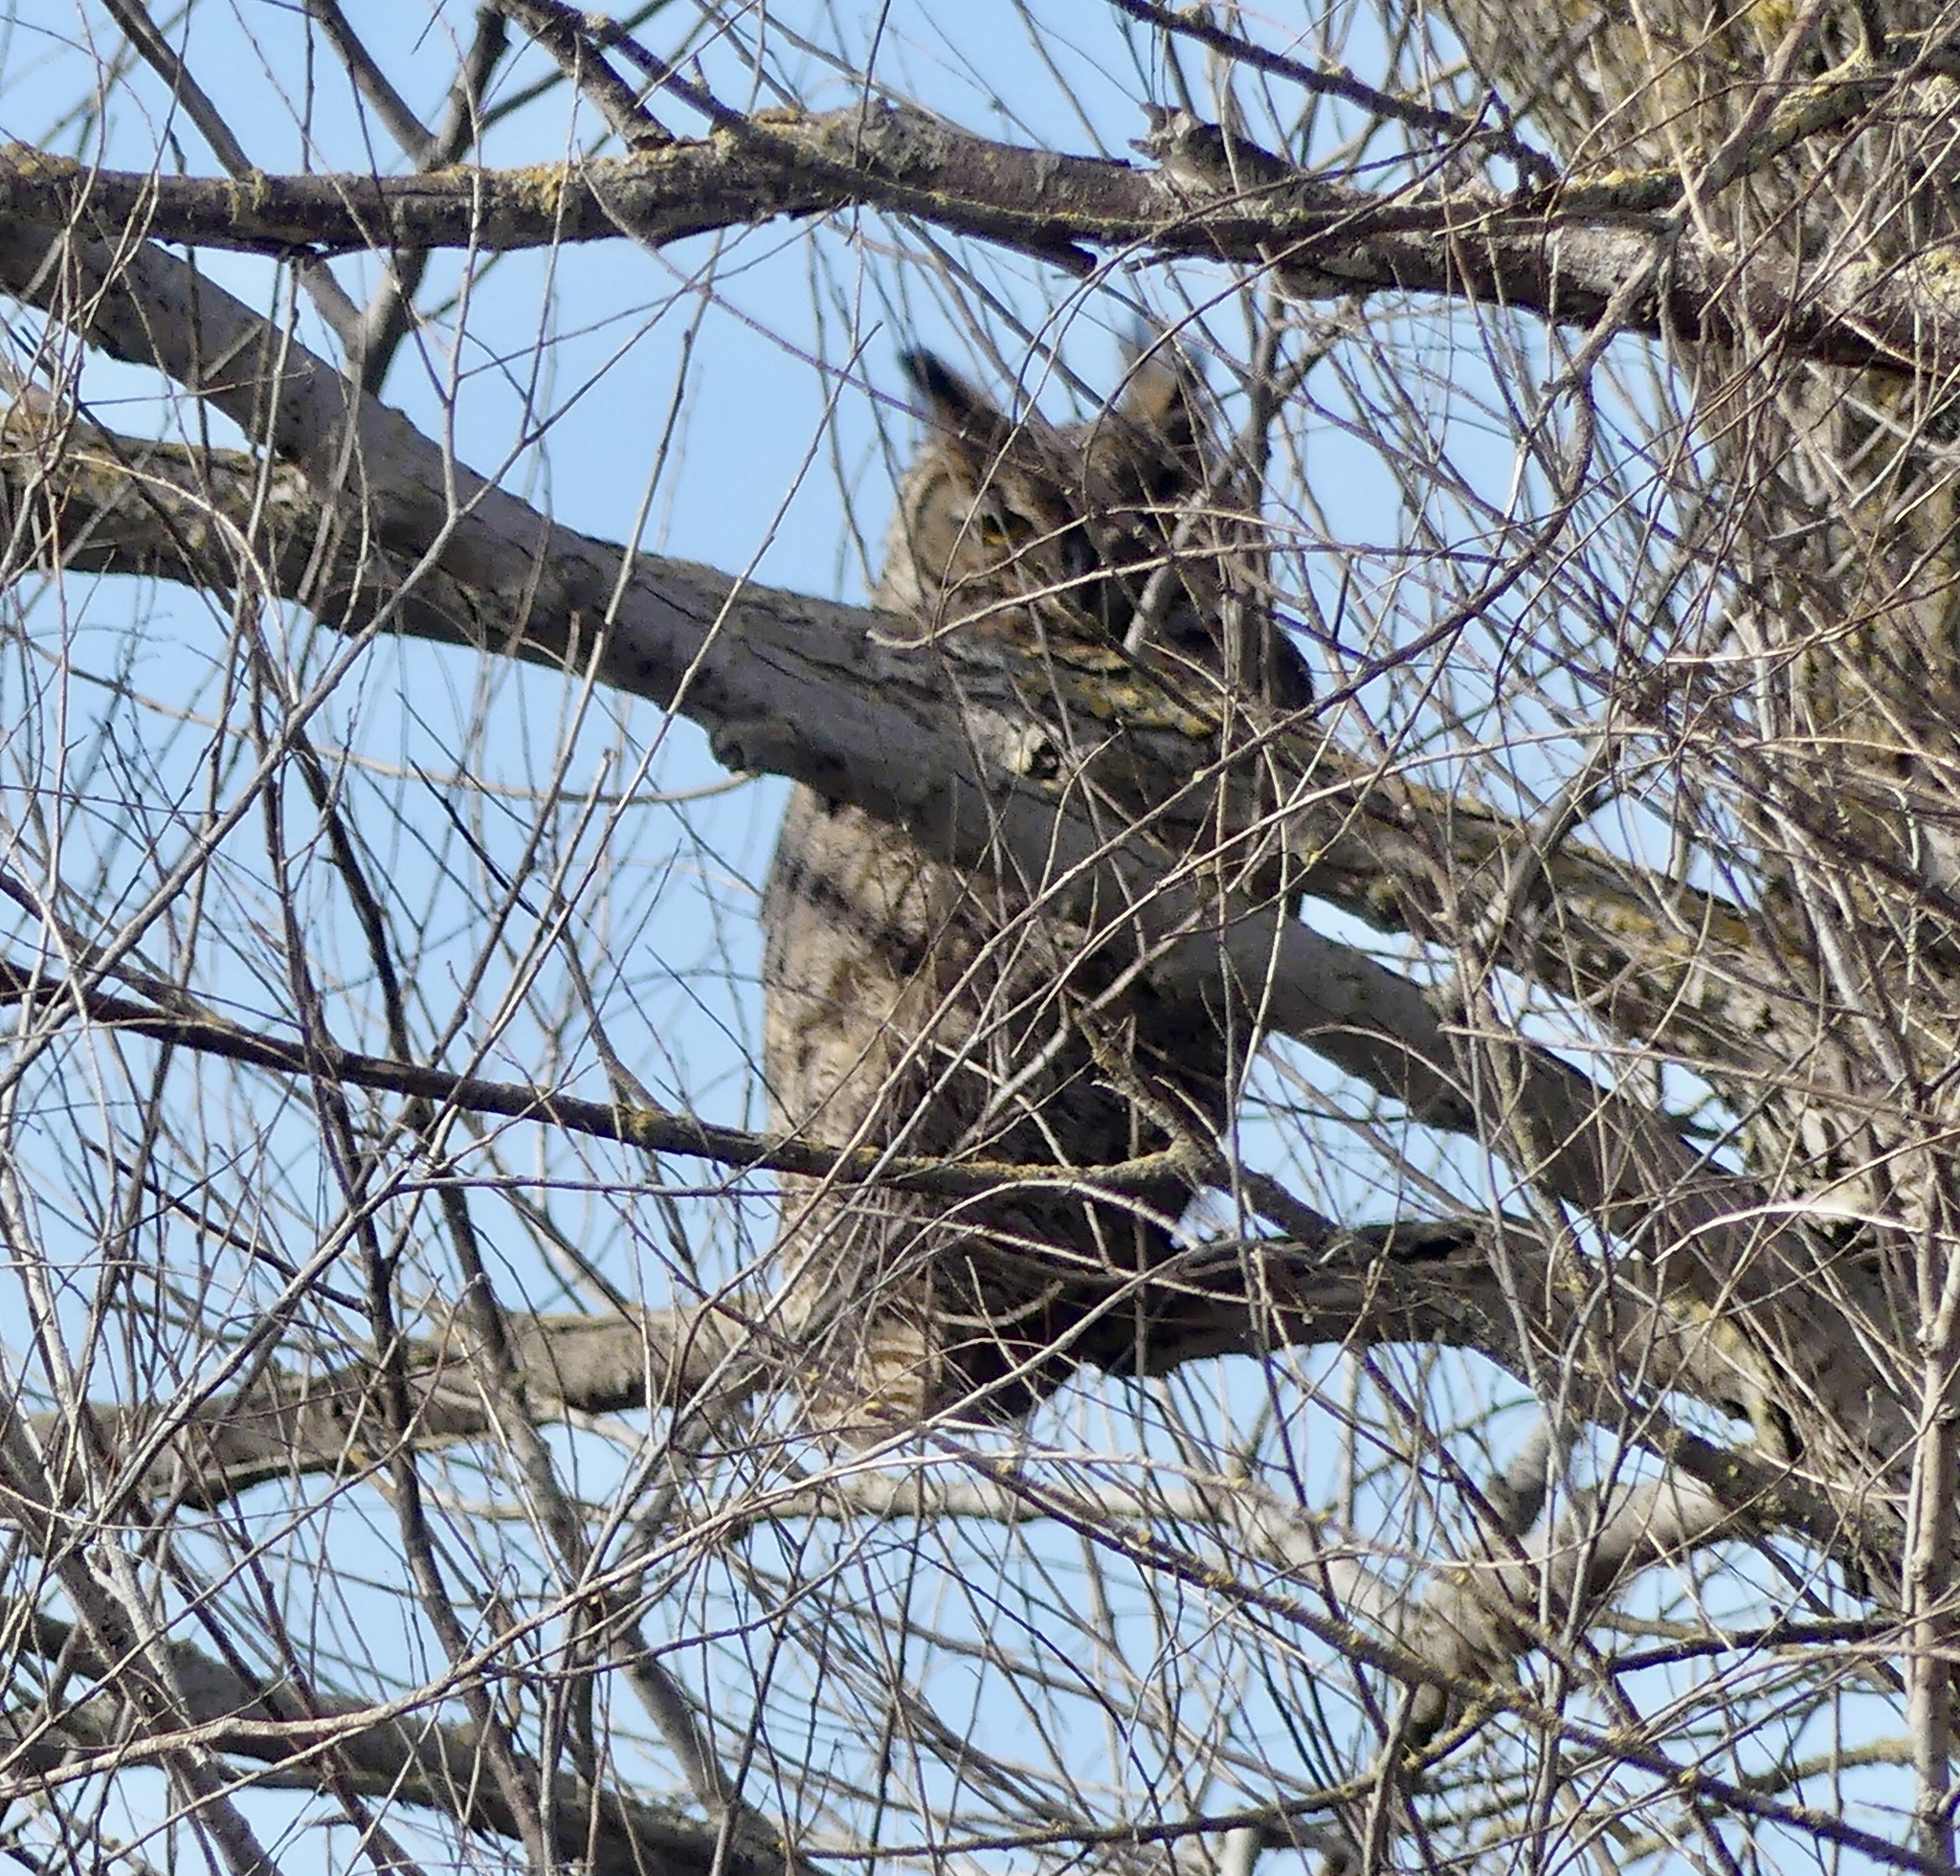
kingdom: Animalia
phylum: Chordata
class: Aves
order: Strigiformes
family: Strigidae
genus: Bubo
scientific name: Bubo virginianus
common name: Great horned owl
